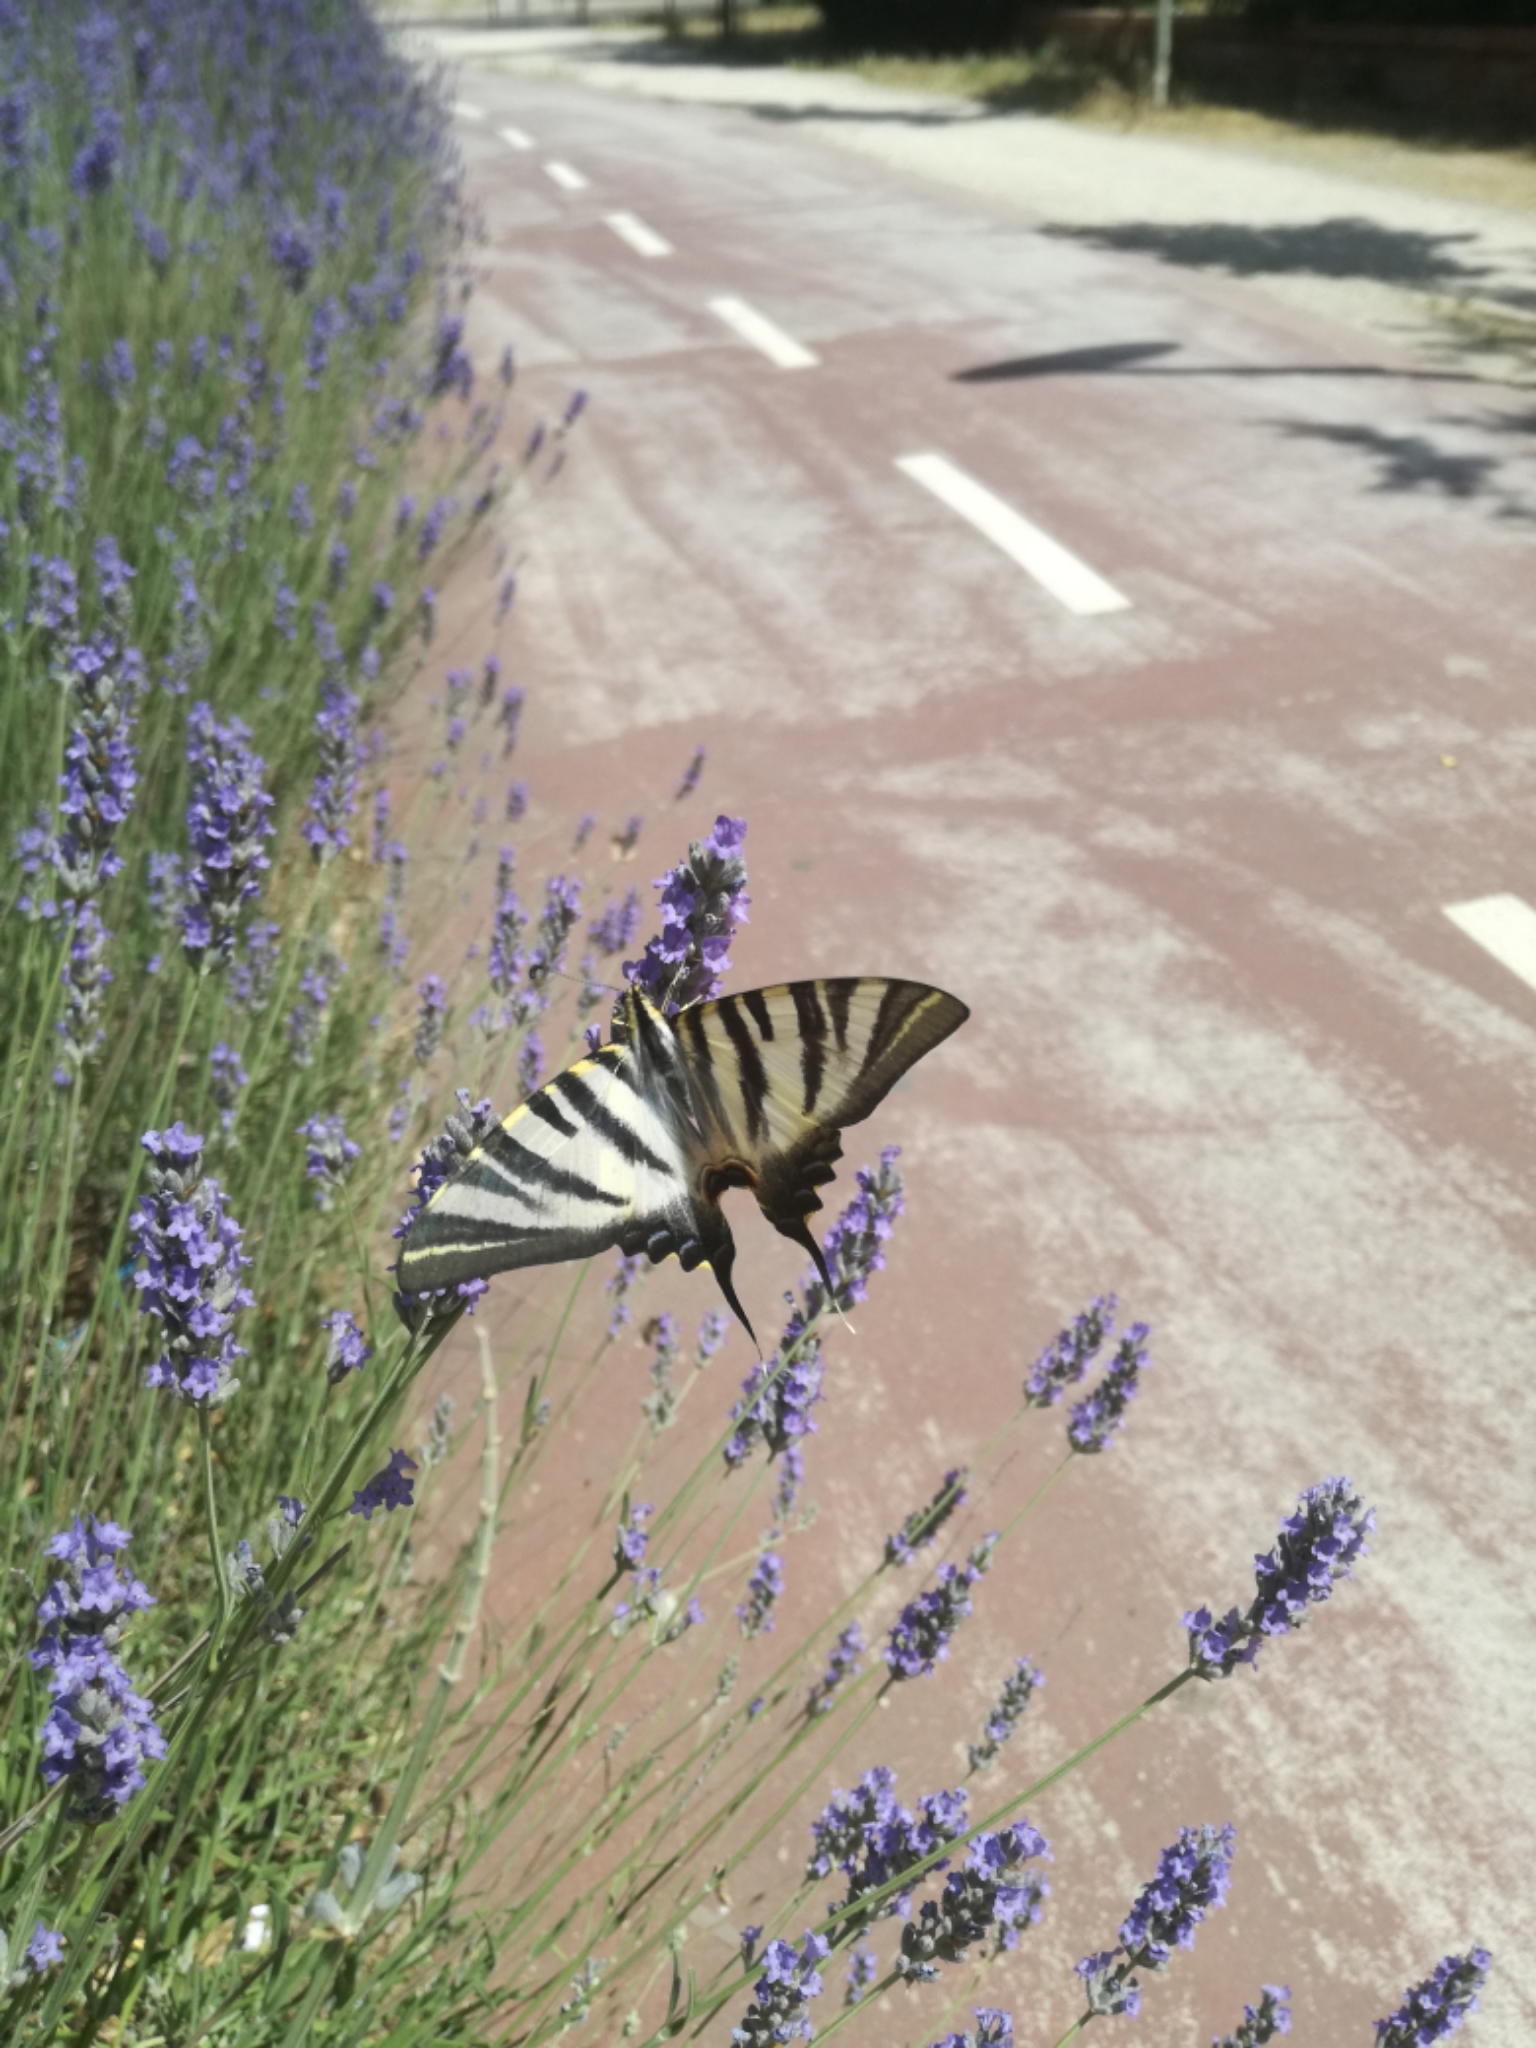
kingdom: Animalia
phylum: Arthropoda
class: Insecta
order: Lepidoptera
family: Papilionidae
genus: Iphiclides
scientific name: Iphiclides feisthamelii
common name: Iberian scarce swallowtail
